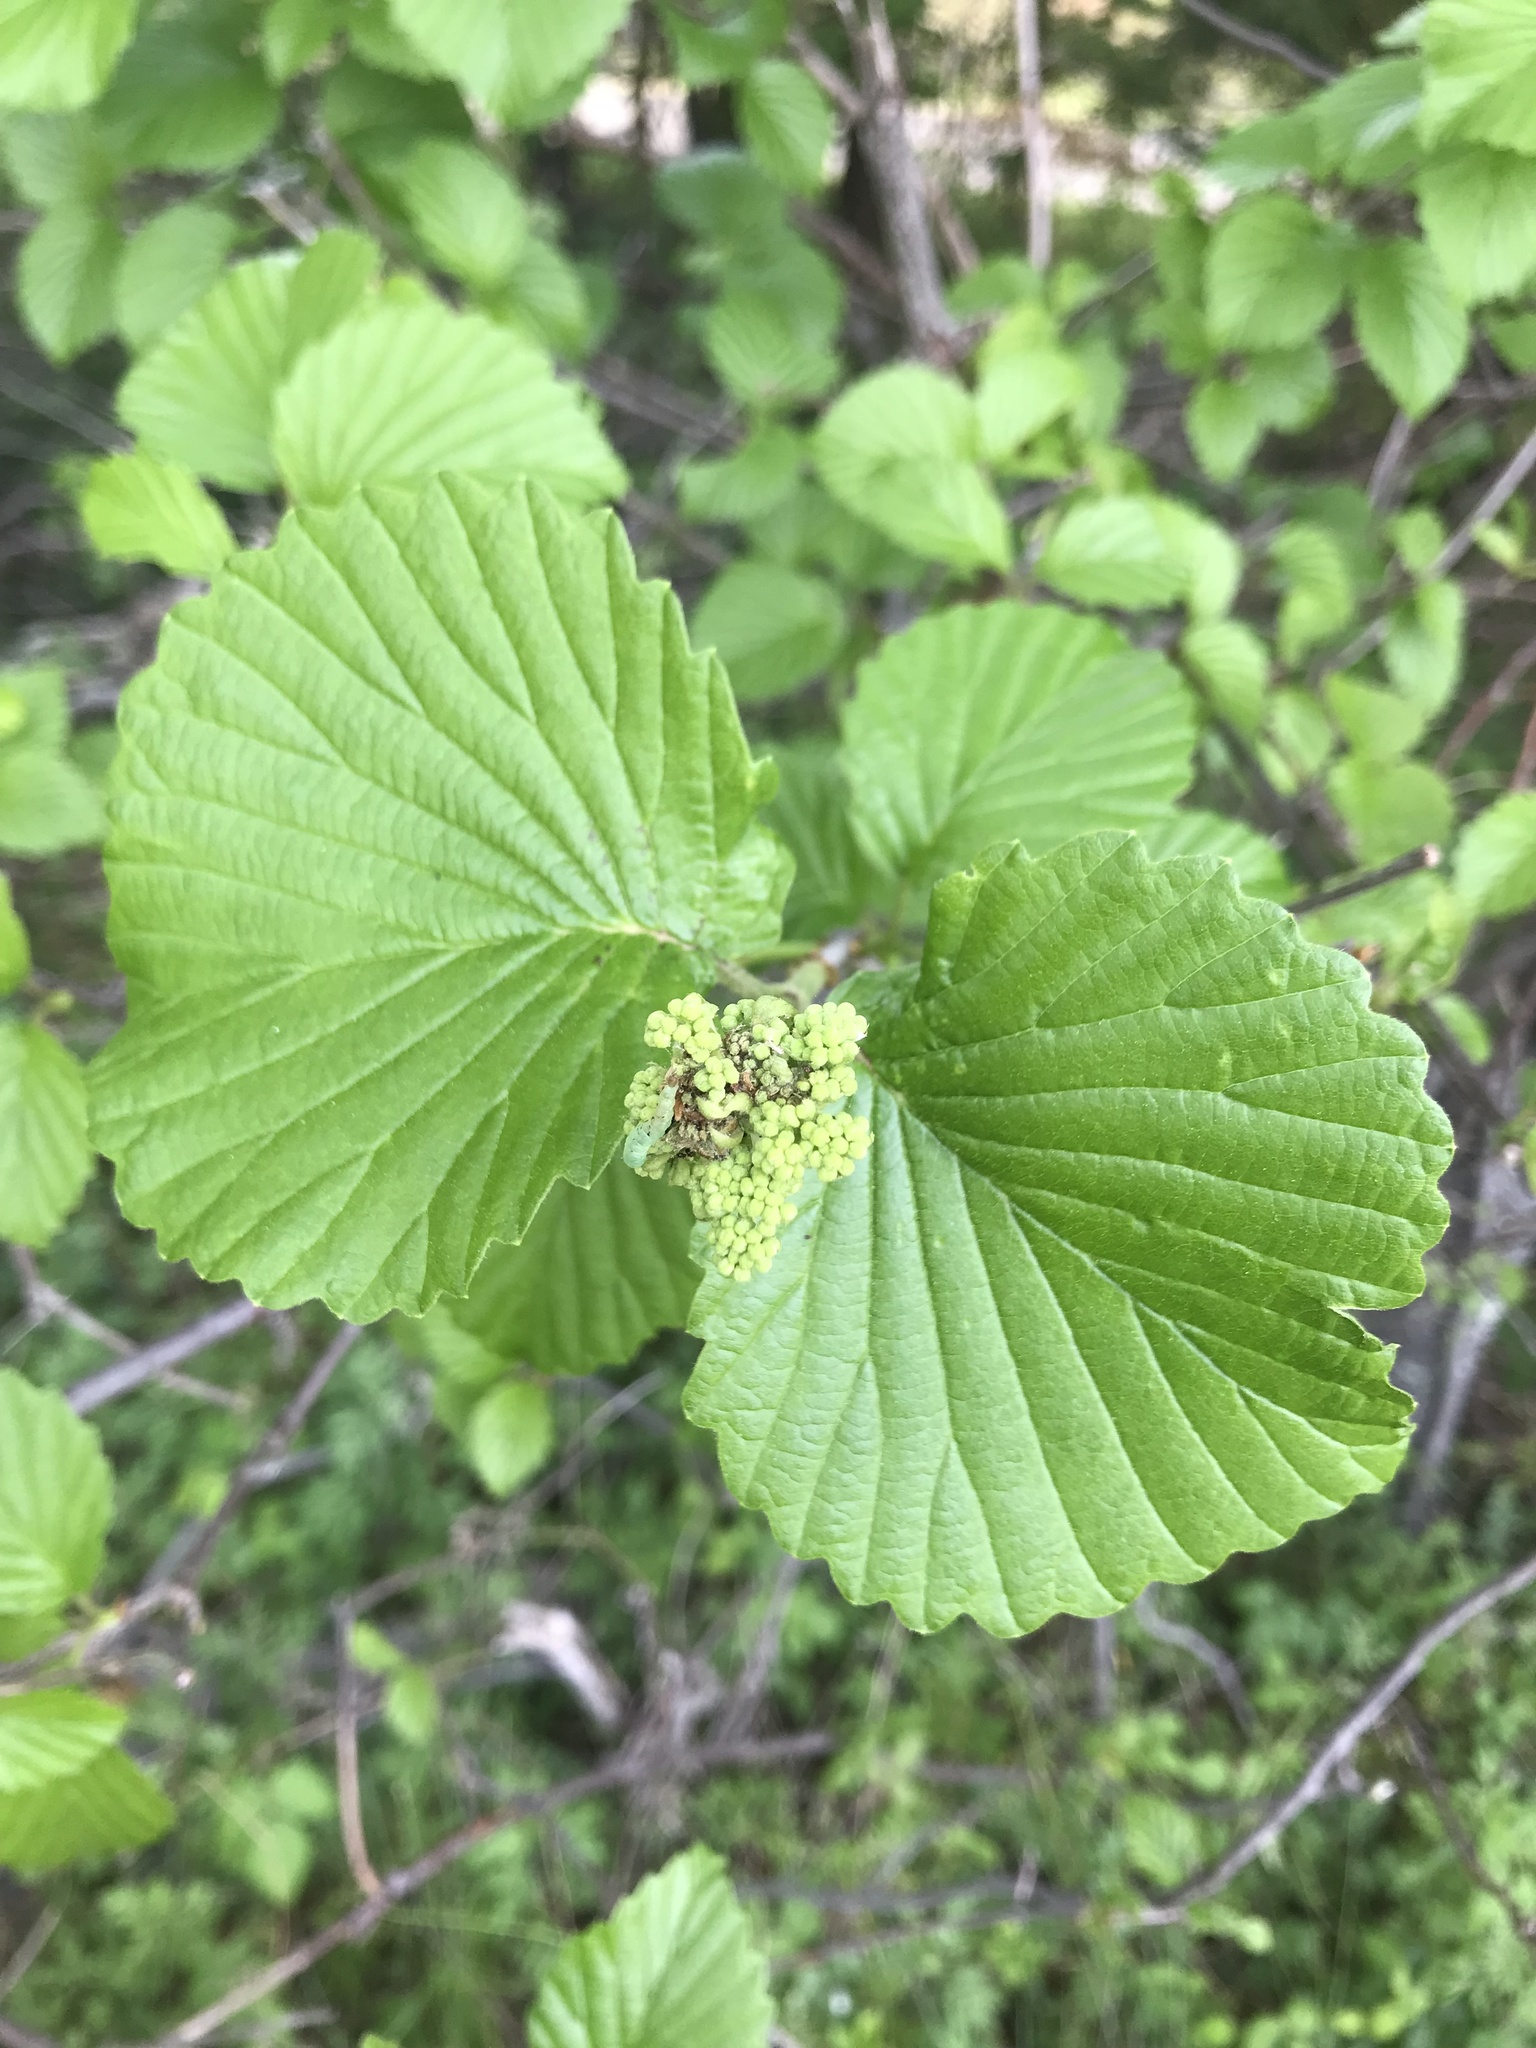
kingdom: Plantae
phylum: Tracheophyta
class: Magnoliopsida
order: Dipsacales
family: Viburnaceae
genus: Viburnum
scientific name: Viburnum dentatum
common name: Arrow-wood
